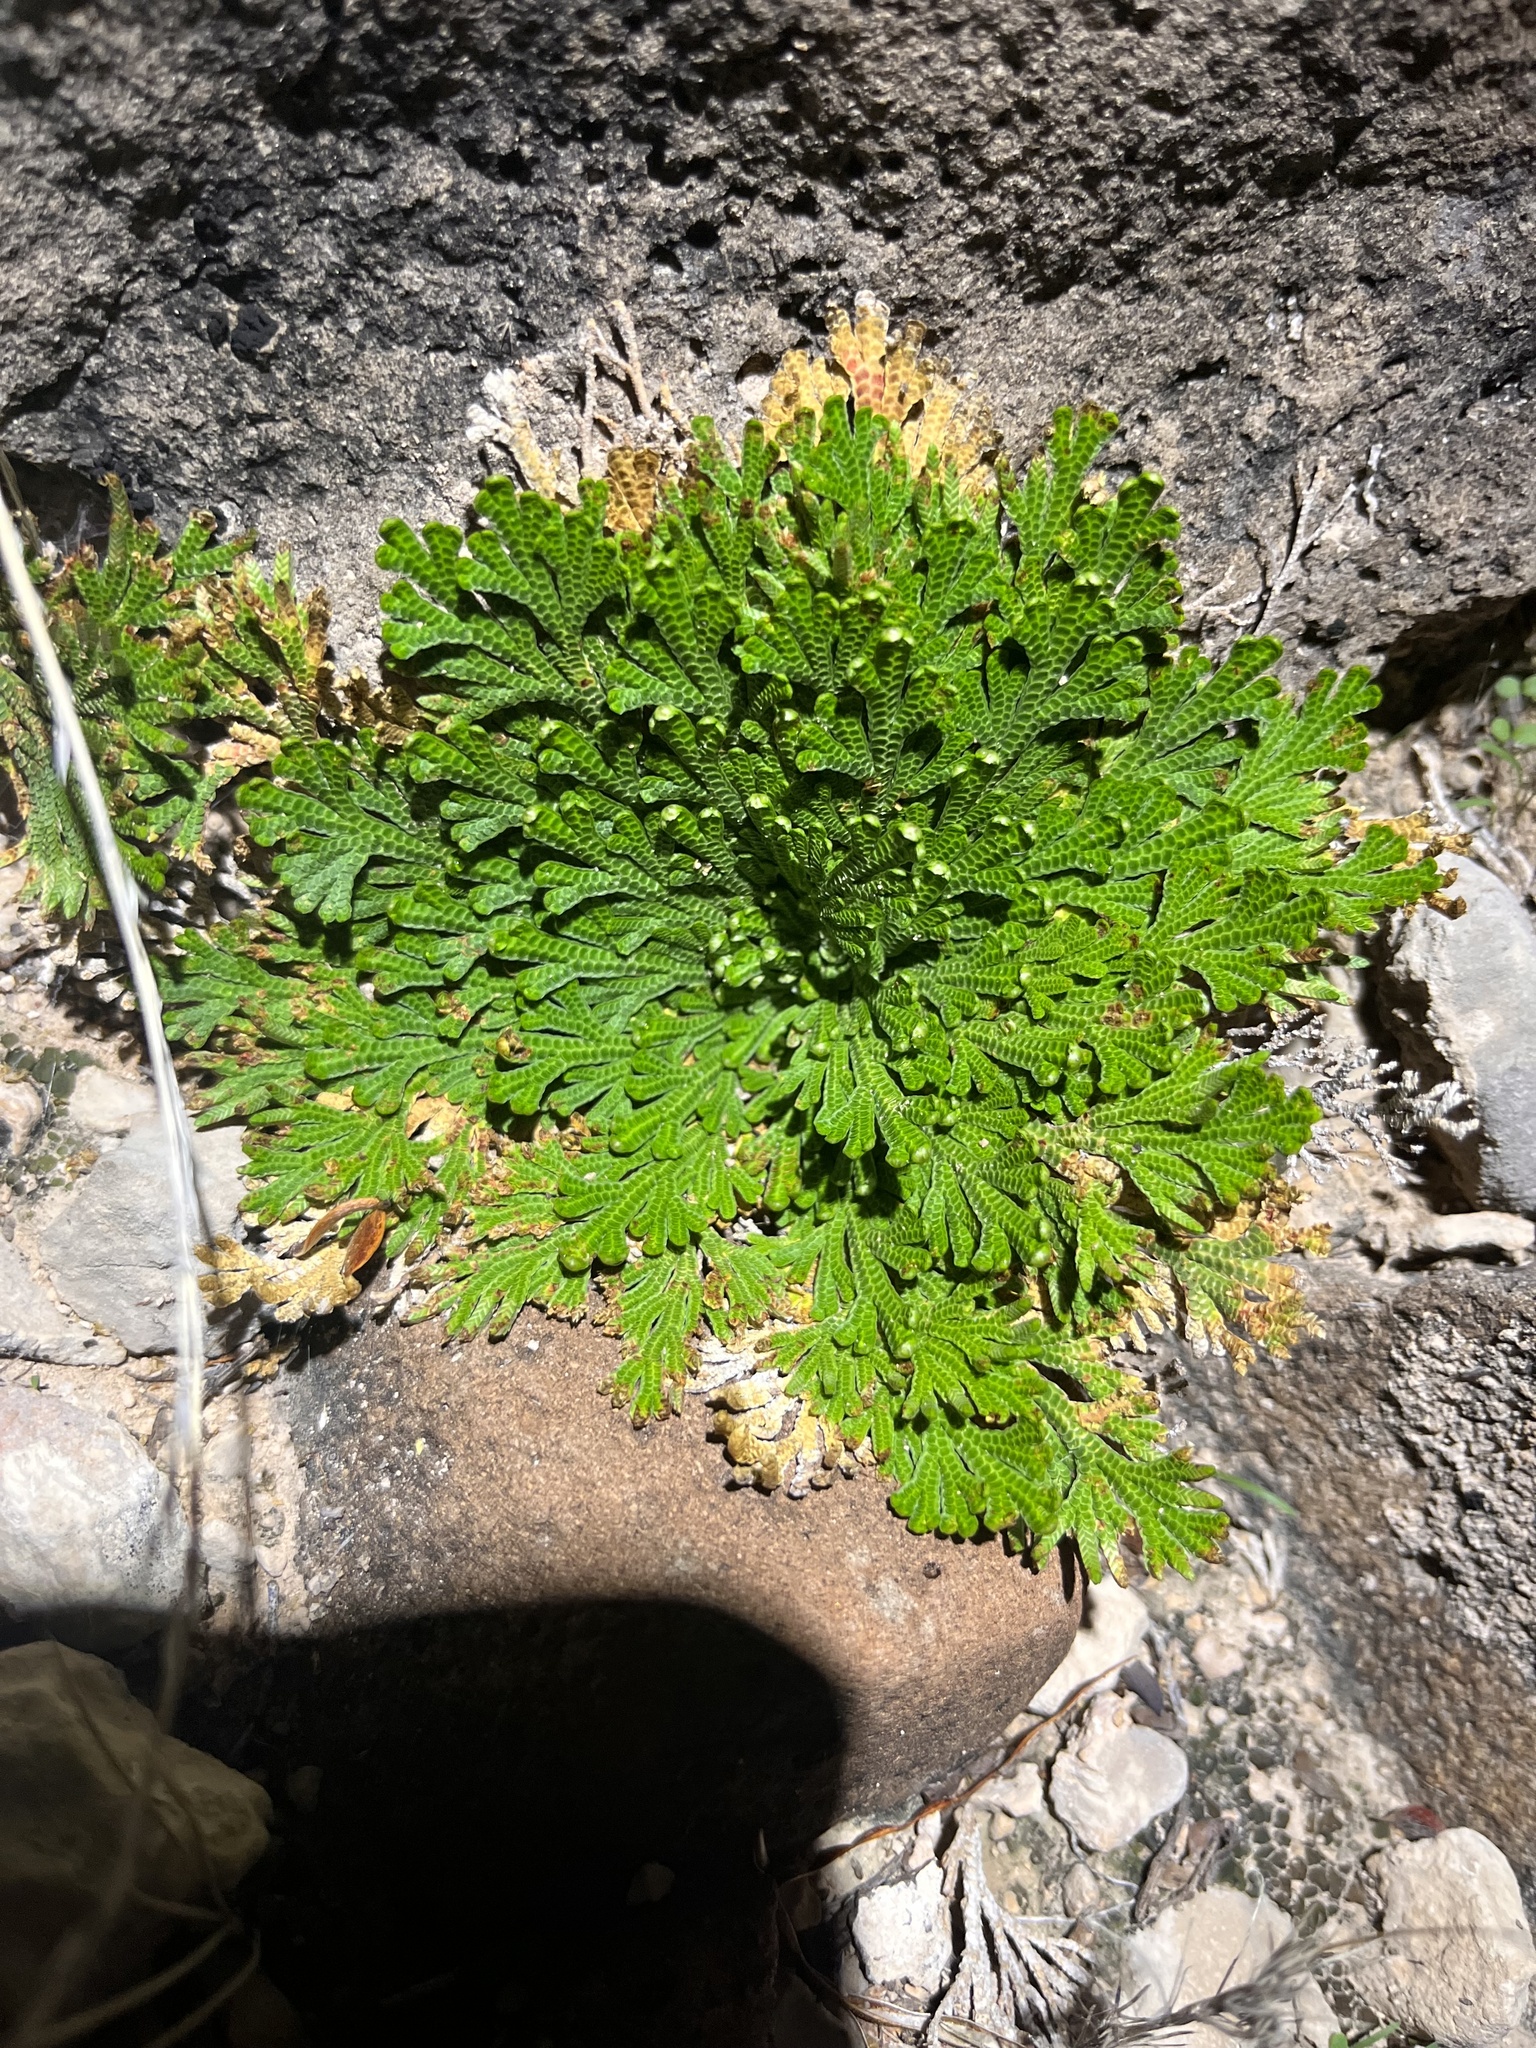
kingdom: Plantae
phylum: Tracheophyta
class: Lycopodiopsida
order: Selaginellales
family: Selaginellaceae
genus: Selaginella
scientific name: Selaginella lepidophylla
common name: Rose-of-jericho
